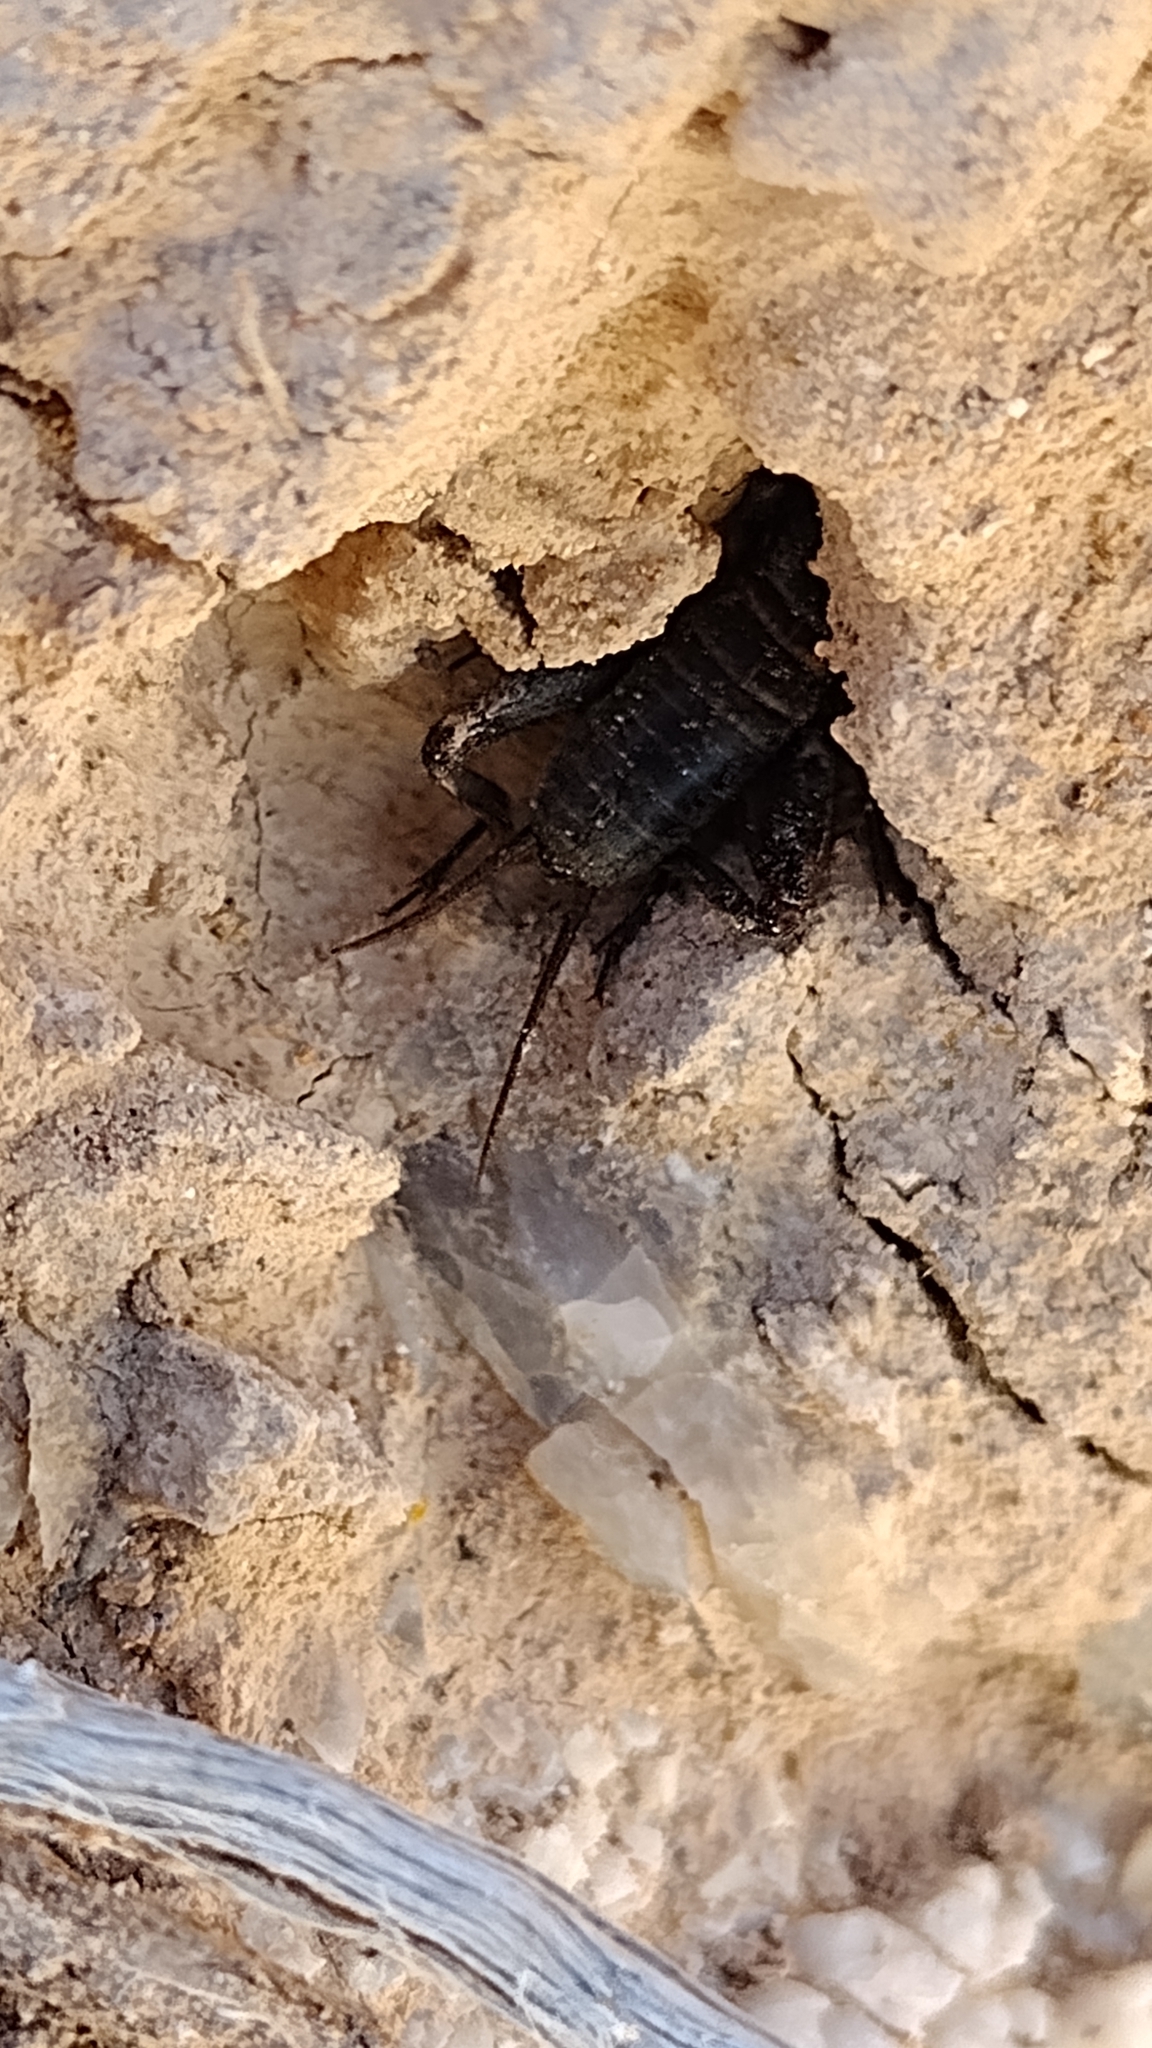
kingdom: Animalia
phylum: Arthropoda
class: Insecta
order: Orthoptera
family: Mogoplistidae
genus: Hoplosphyrum
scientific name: Hoplosphyrum boreale
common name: Long-winged scaly cricket
